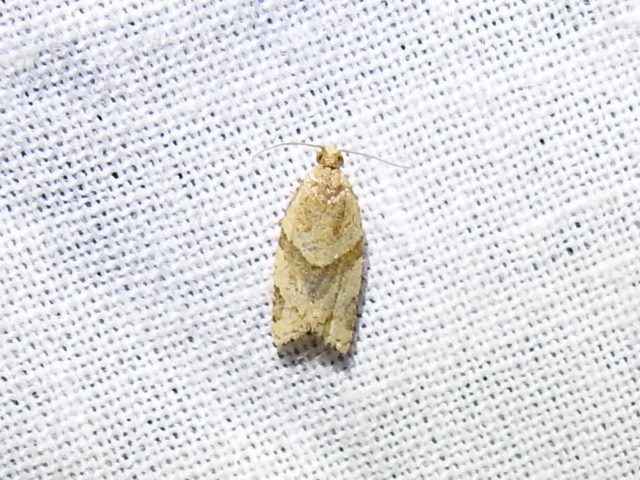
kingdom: Animalia
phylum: Arthropoda
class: Insecta
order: Lepidoptera
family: Tortricidae
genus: Clepsis
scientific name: Clepsis peritana
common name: Garden tortrix
